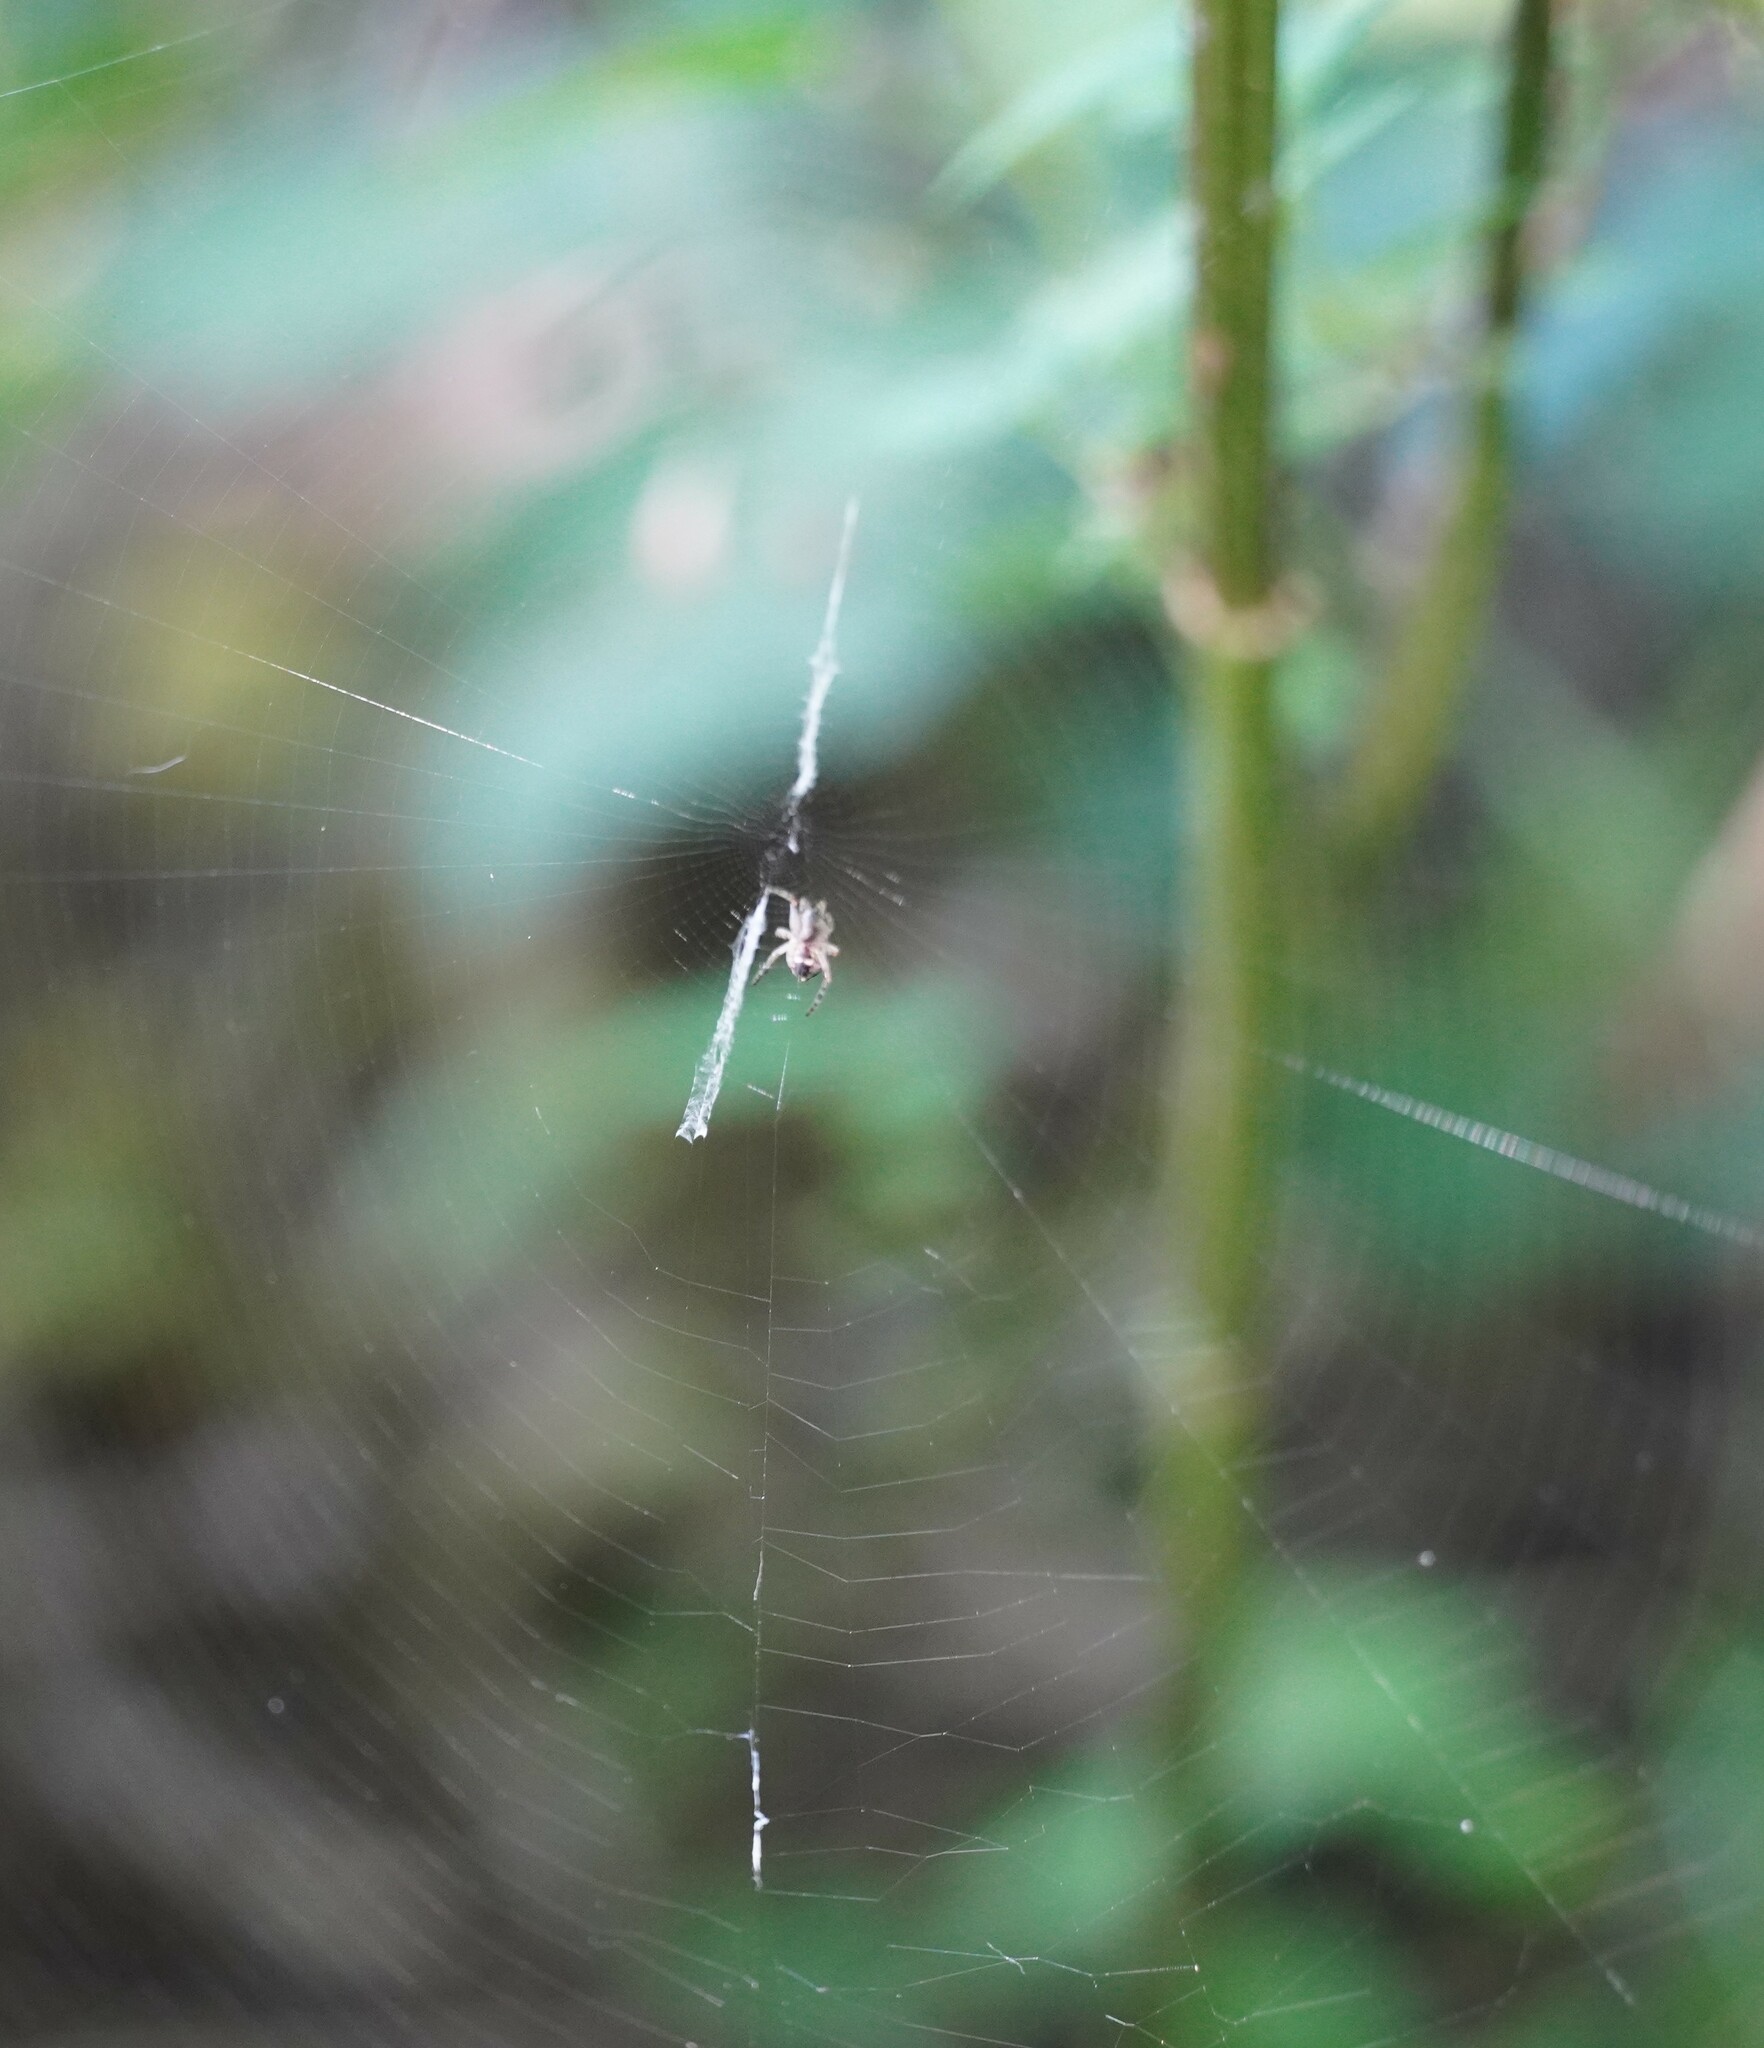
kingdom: Animalia
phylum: Arthropoda
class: Arachnida
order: Araneae
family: Araneidae
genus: Cyclosa
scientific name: Cyclosa conica
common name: Conical trashline orbweaver
